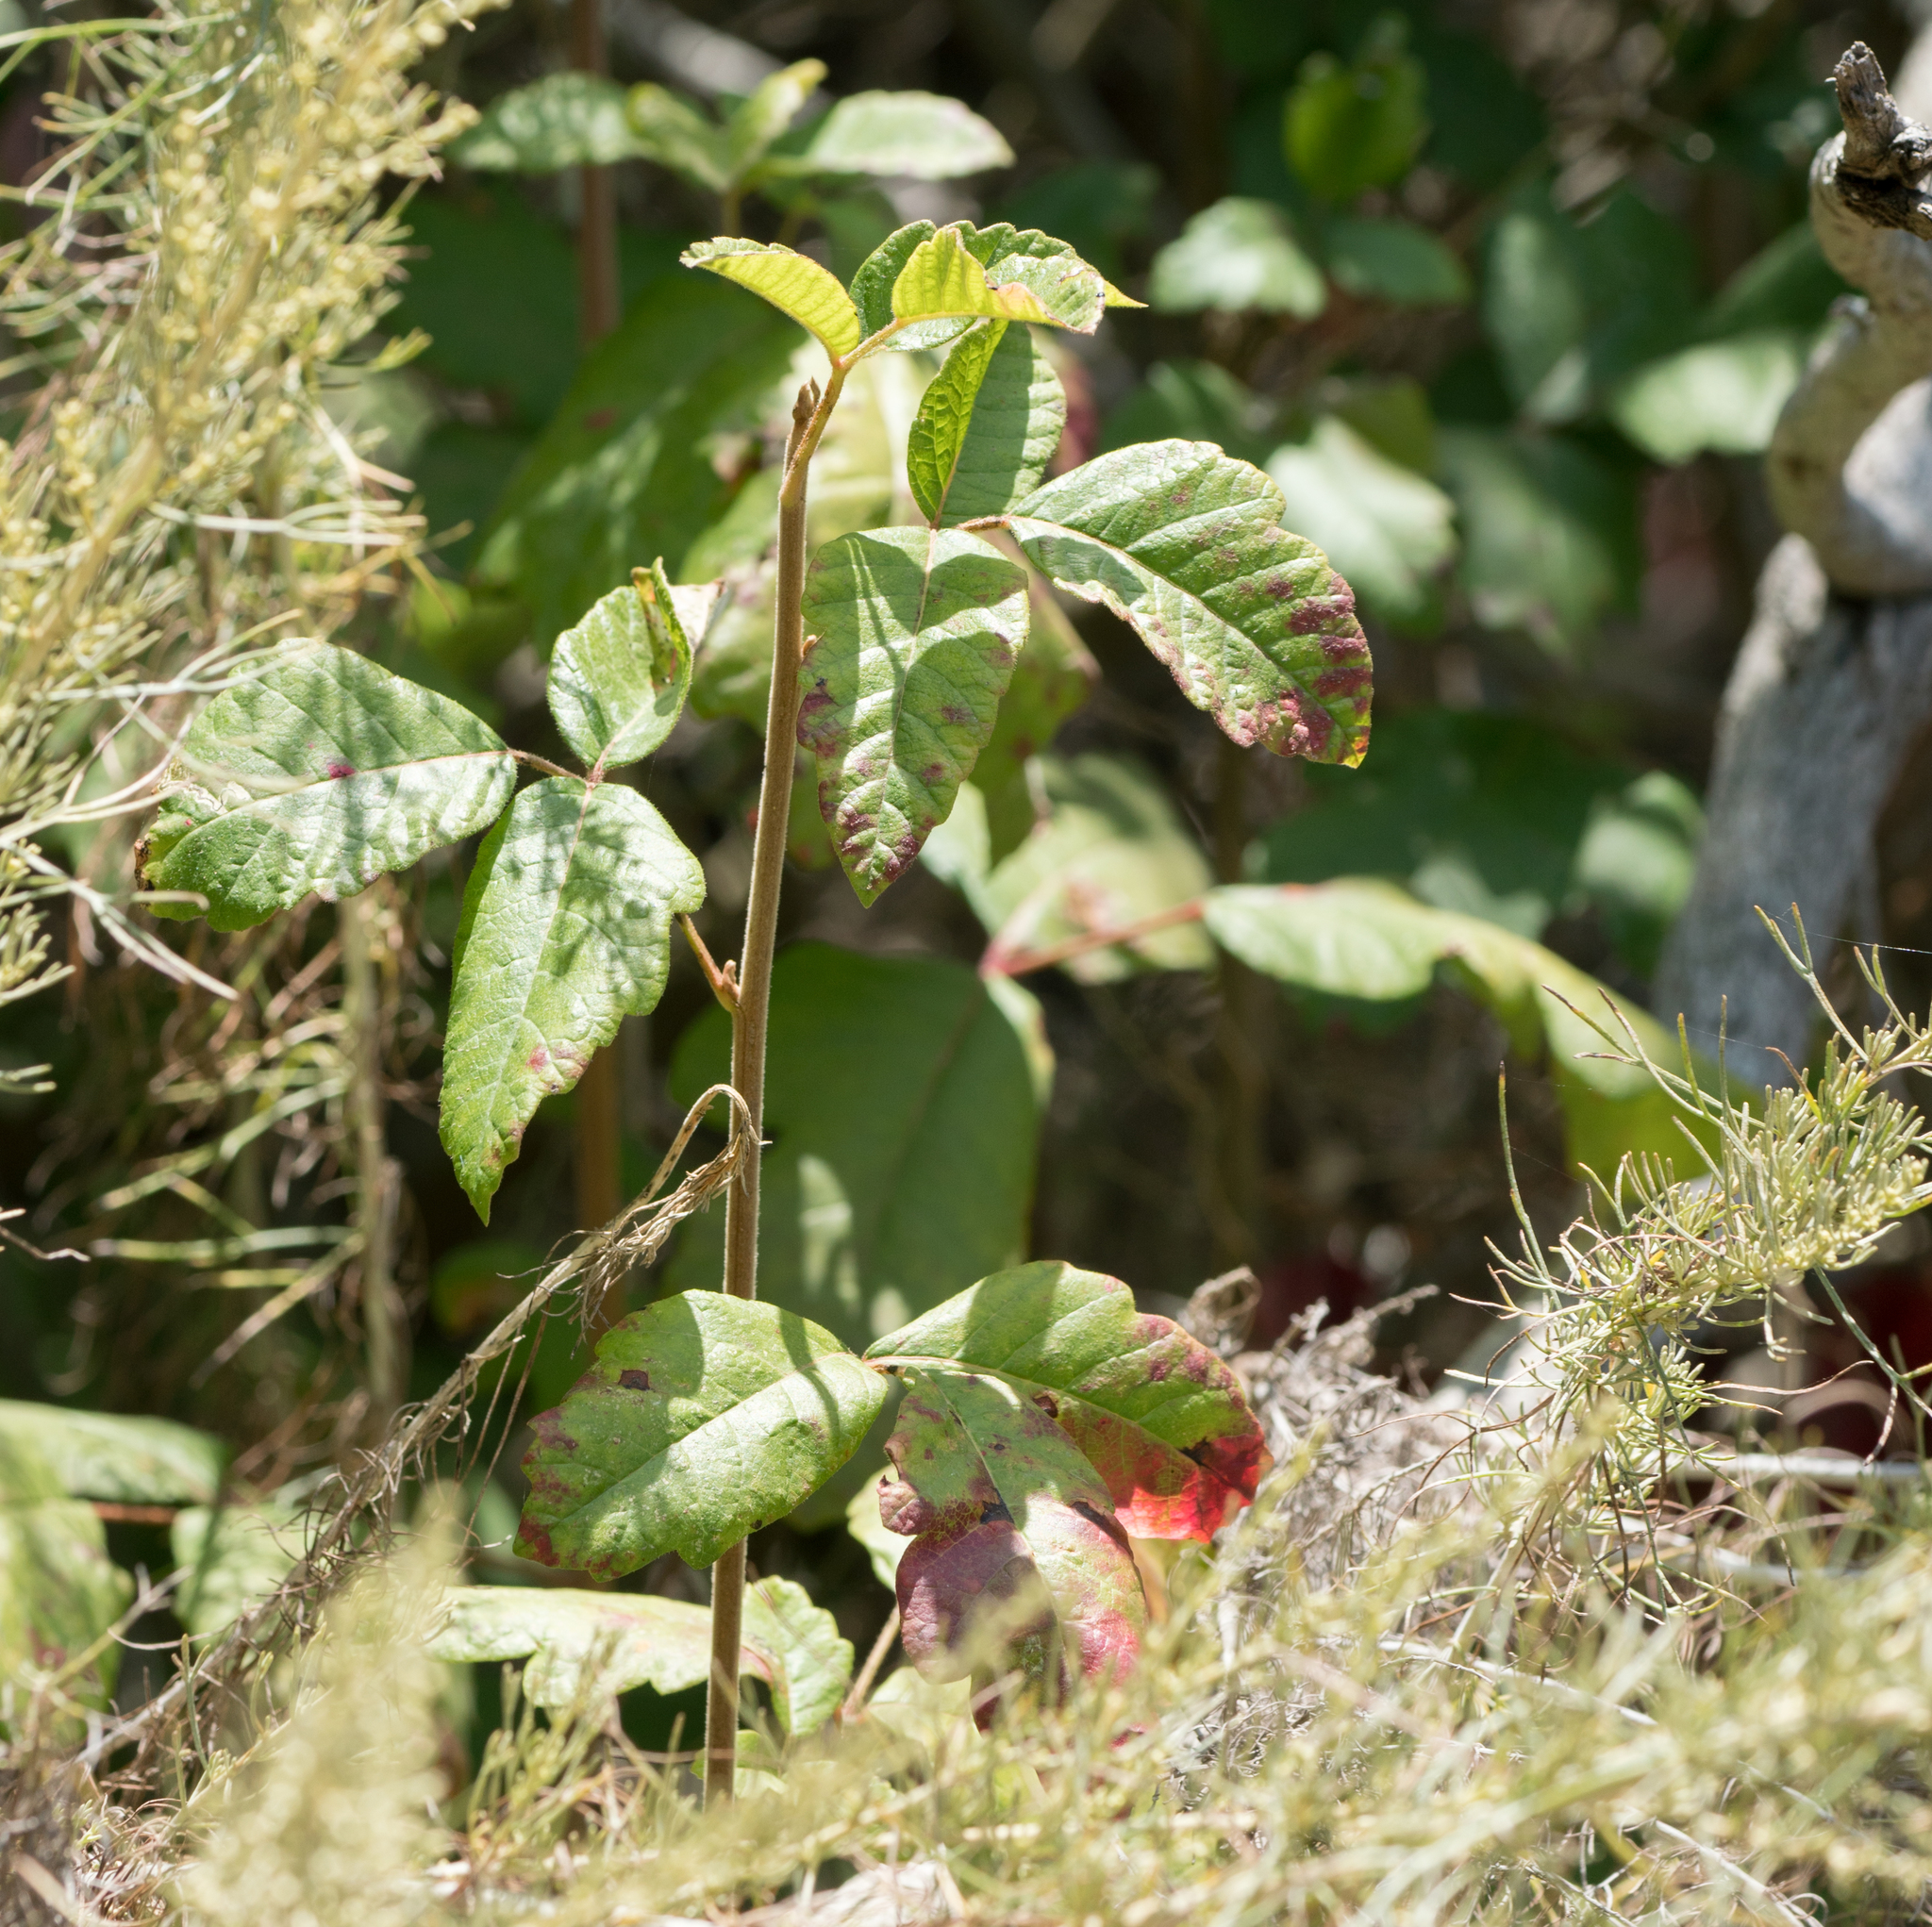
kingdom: Plantae
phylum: Tracheophyta
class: Magnoliopsida
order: Sapindales
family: Anacardiaceae
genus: Toxicodendron
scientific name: Toxicodendron diversilobum
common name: Pacific poison-oak
